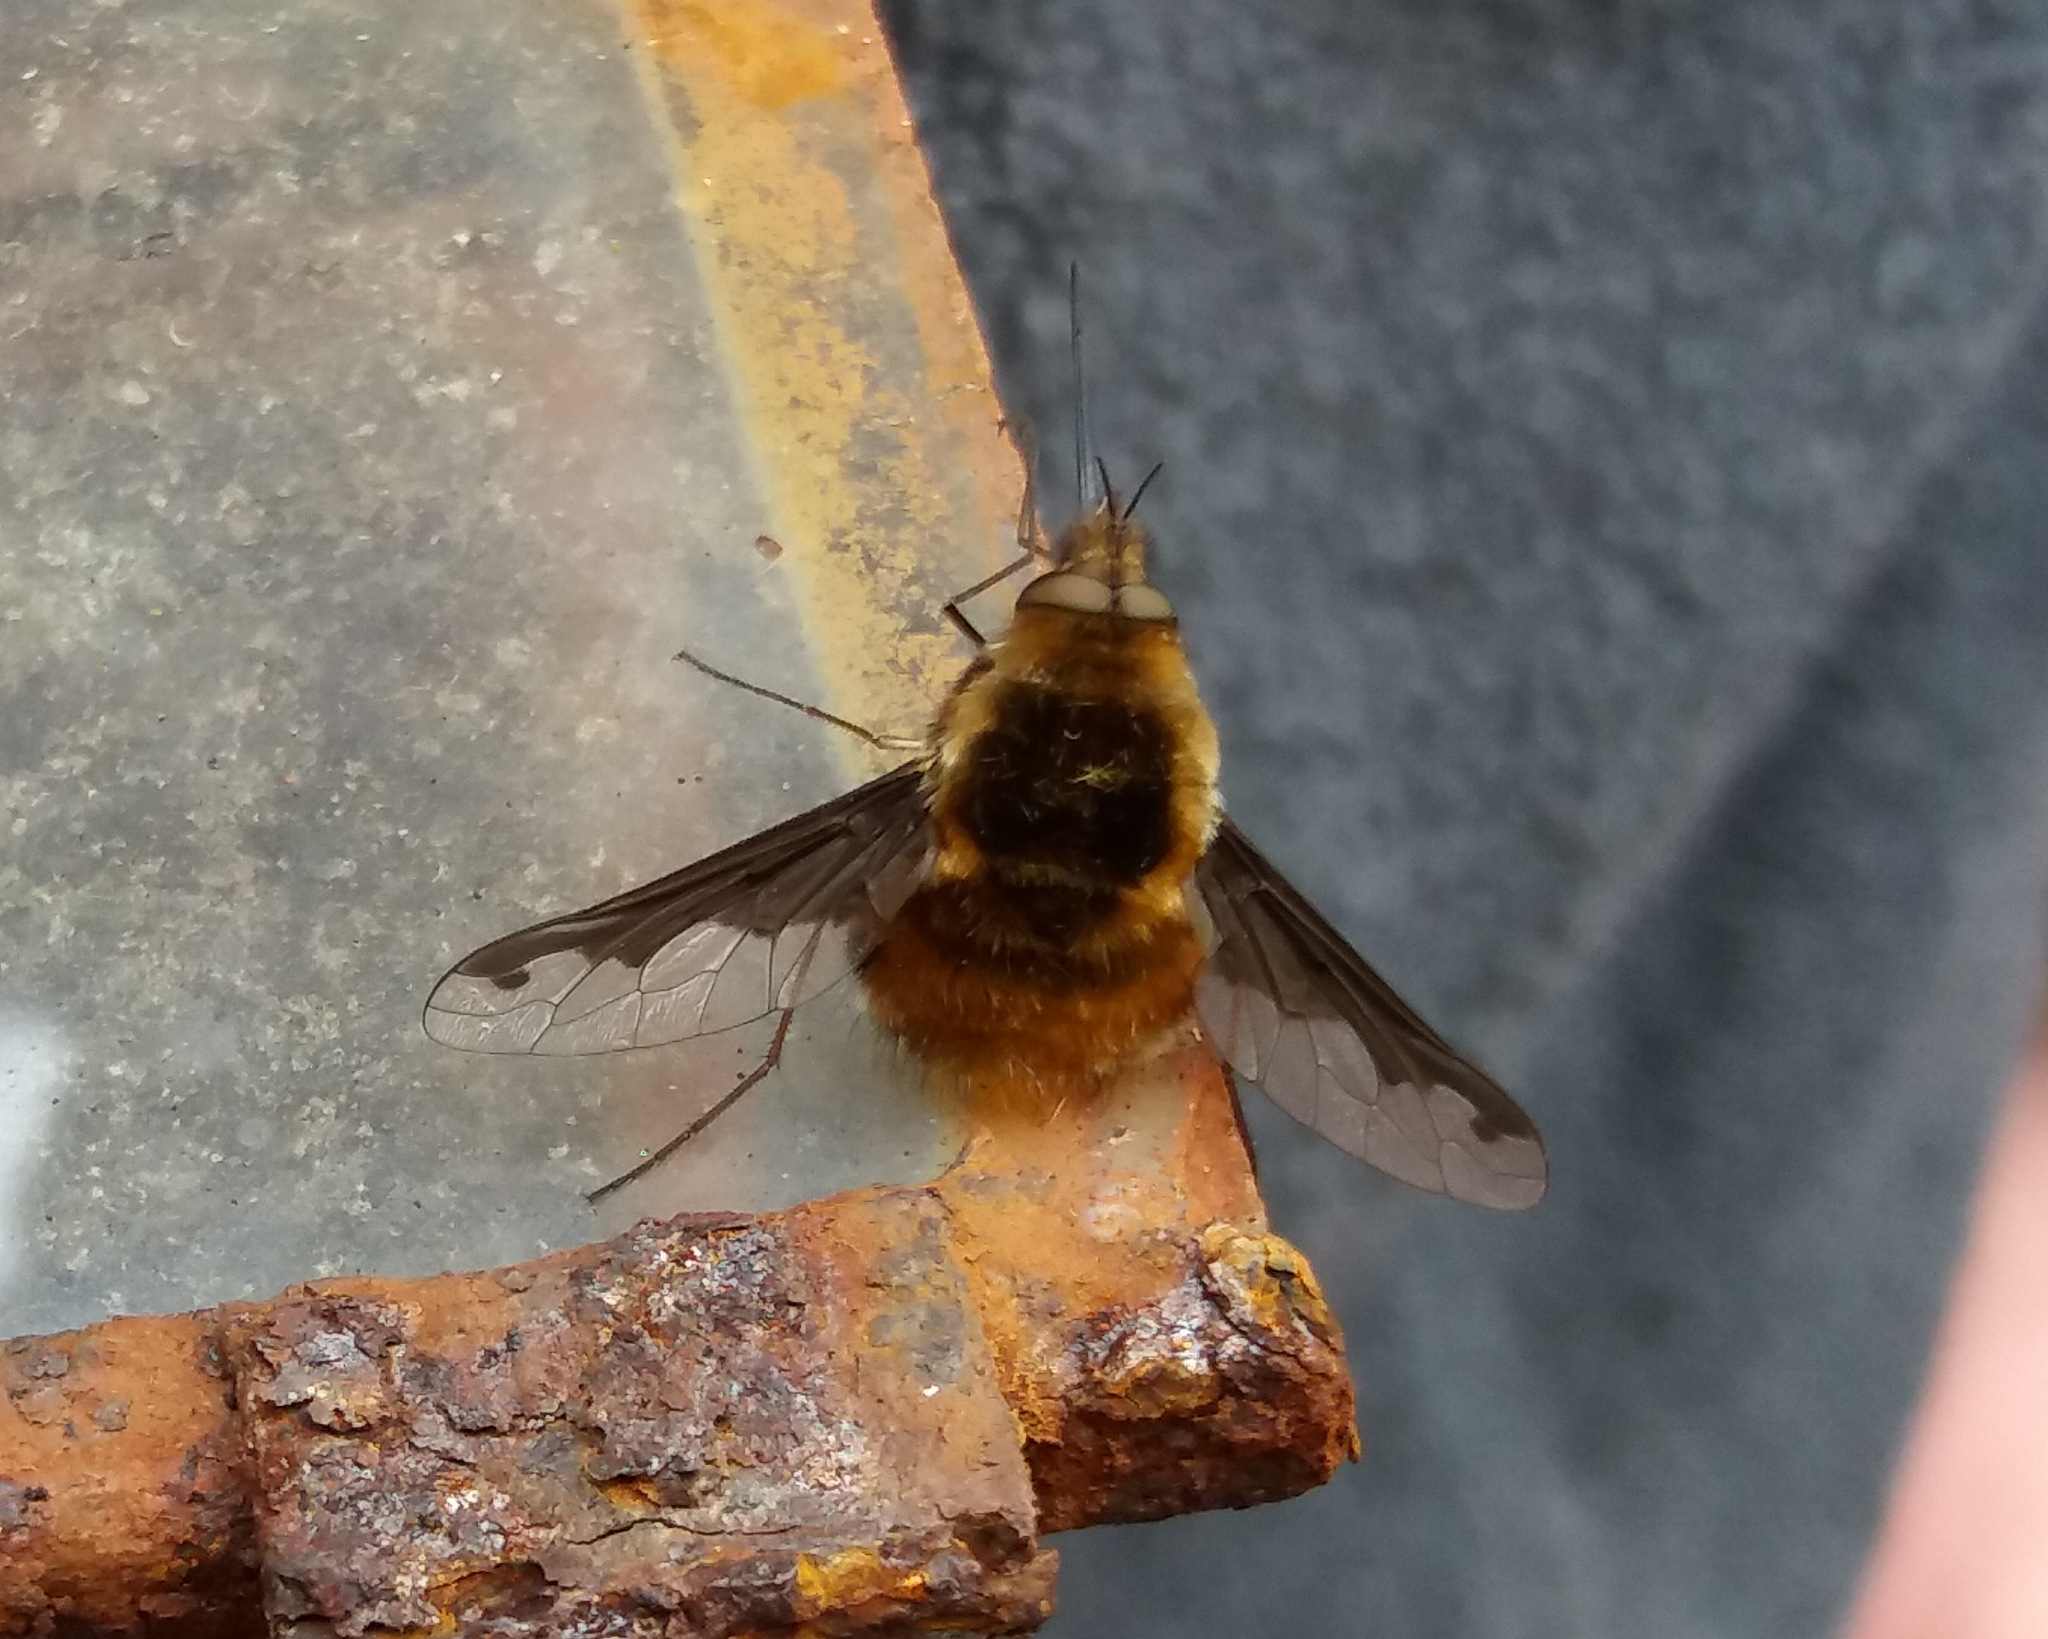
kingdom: Animalia
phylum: Arthropoda
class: Insecta
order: Diptera
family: Bombyliidae
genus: Bombylius
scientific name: Bombylius major
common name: Bee fly
